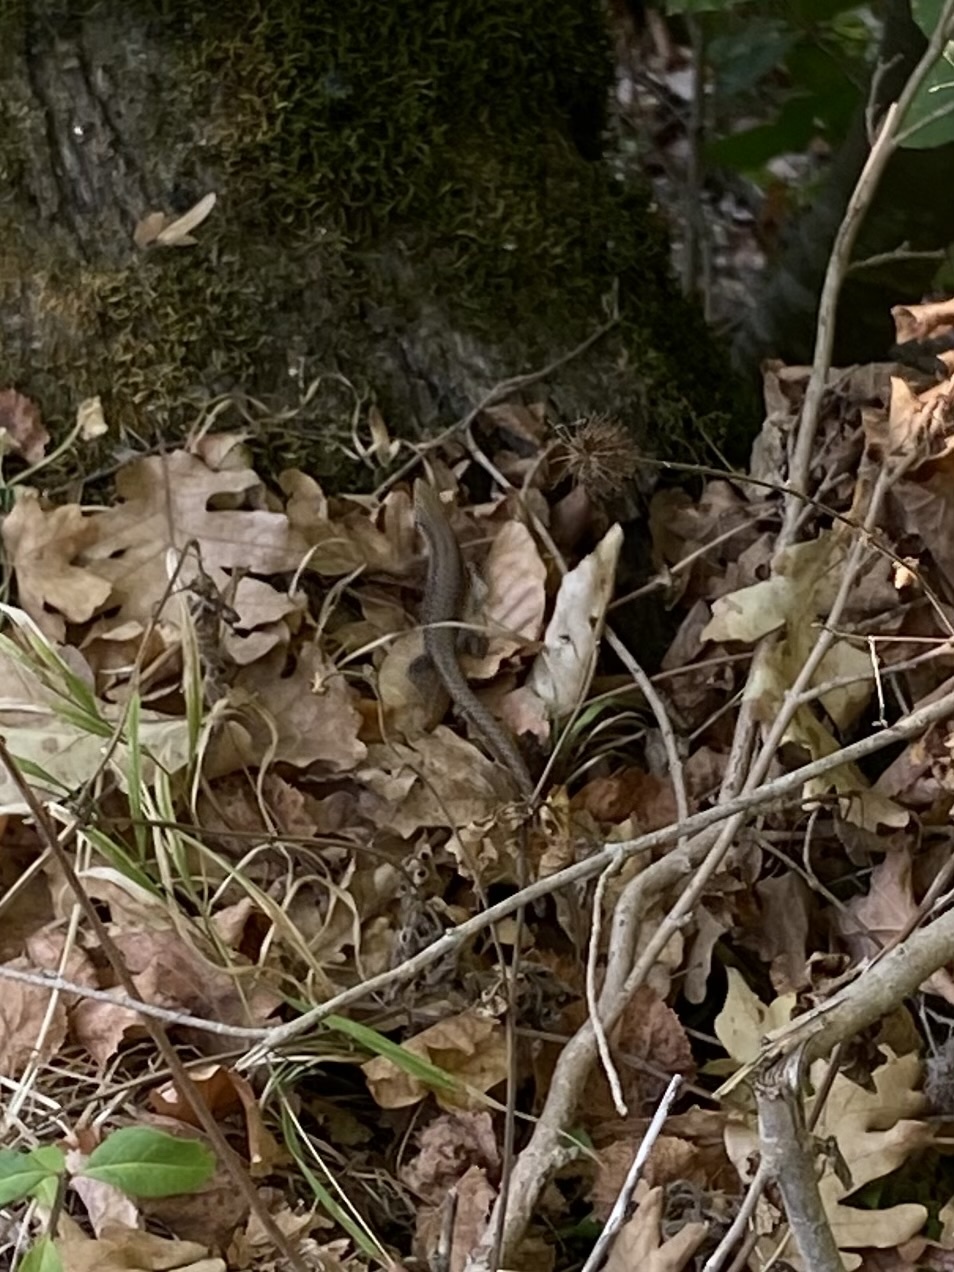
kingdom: Animalia
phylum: Chordata
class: Squamata
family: Lacertidae
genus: Darevskia
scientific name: Darevskia brauneri
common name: Brauner's rock lizard
